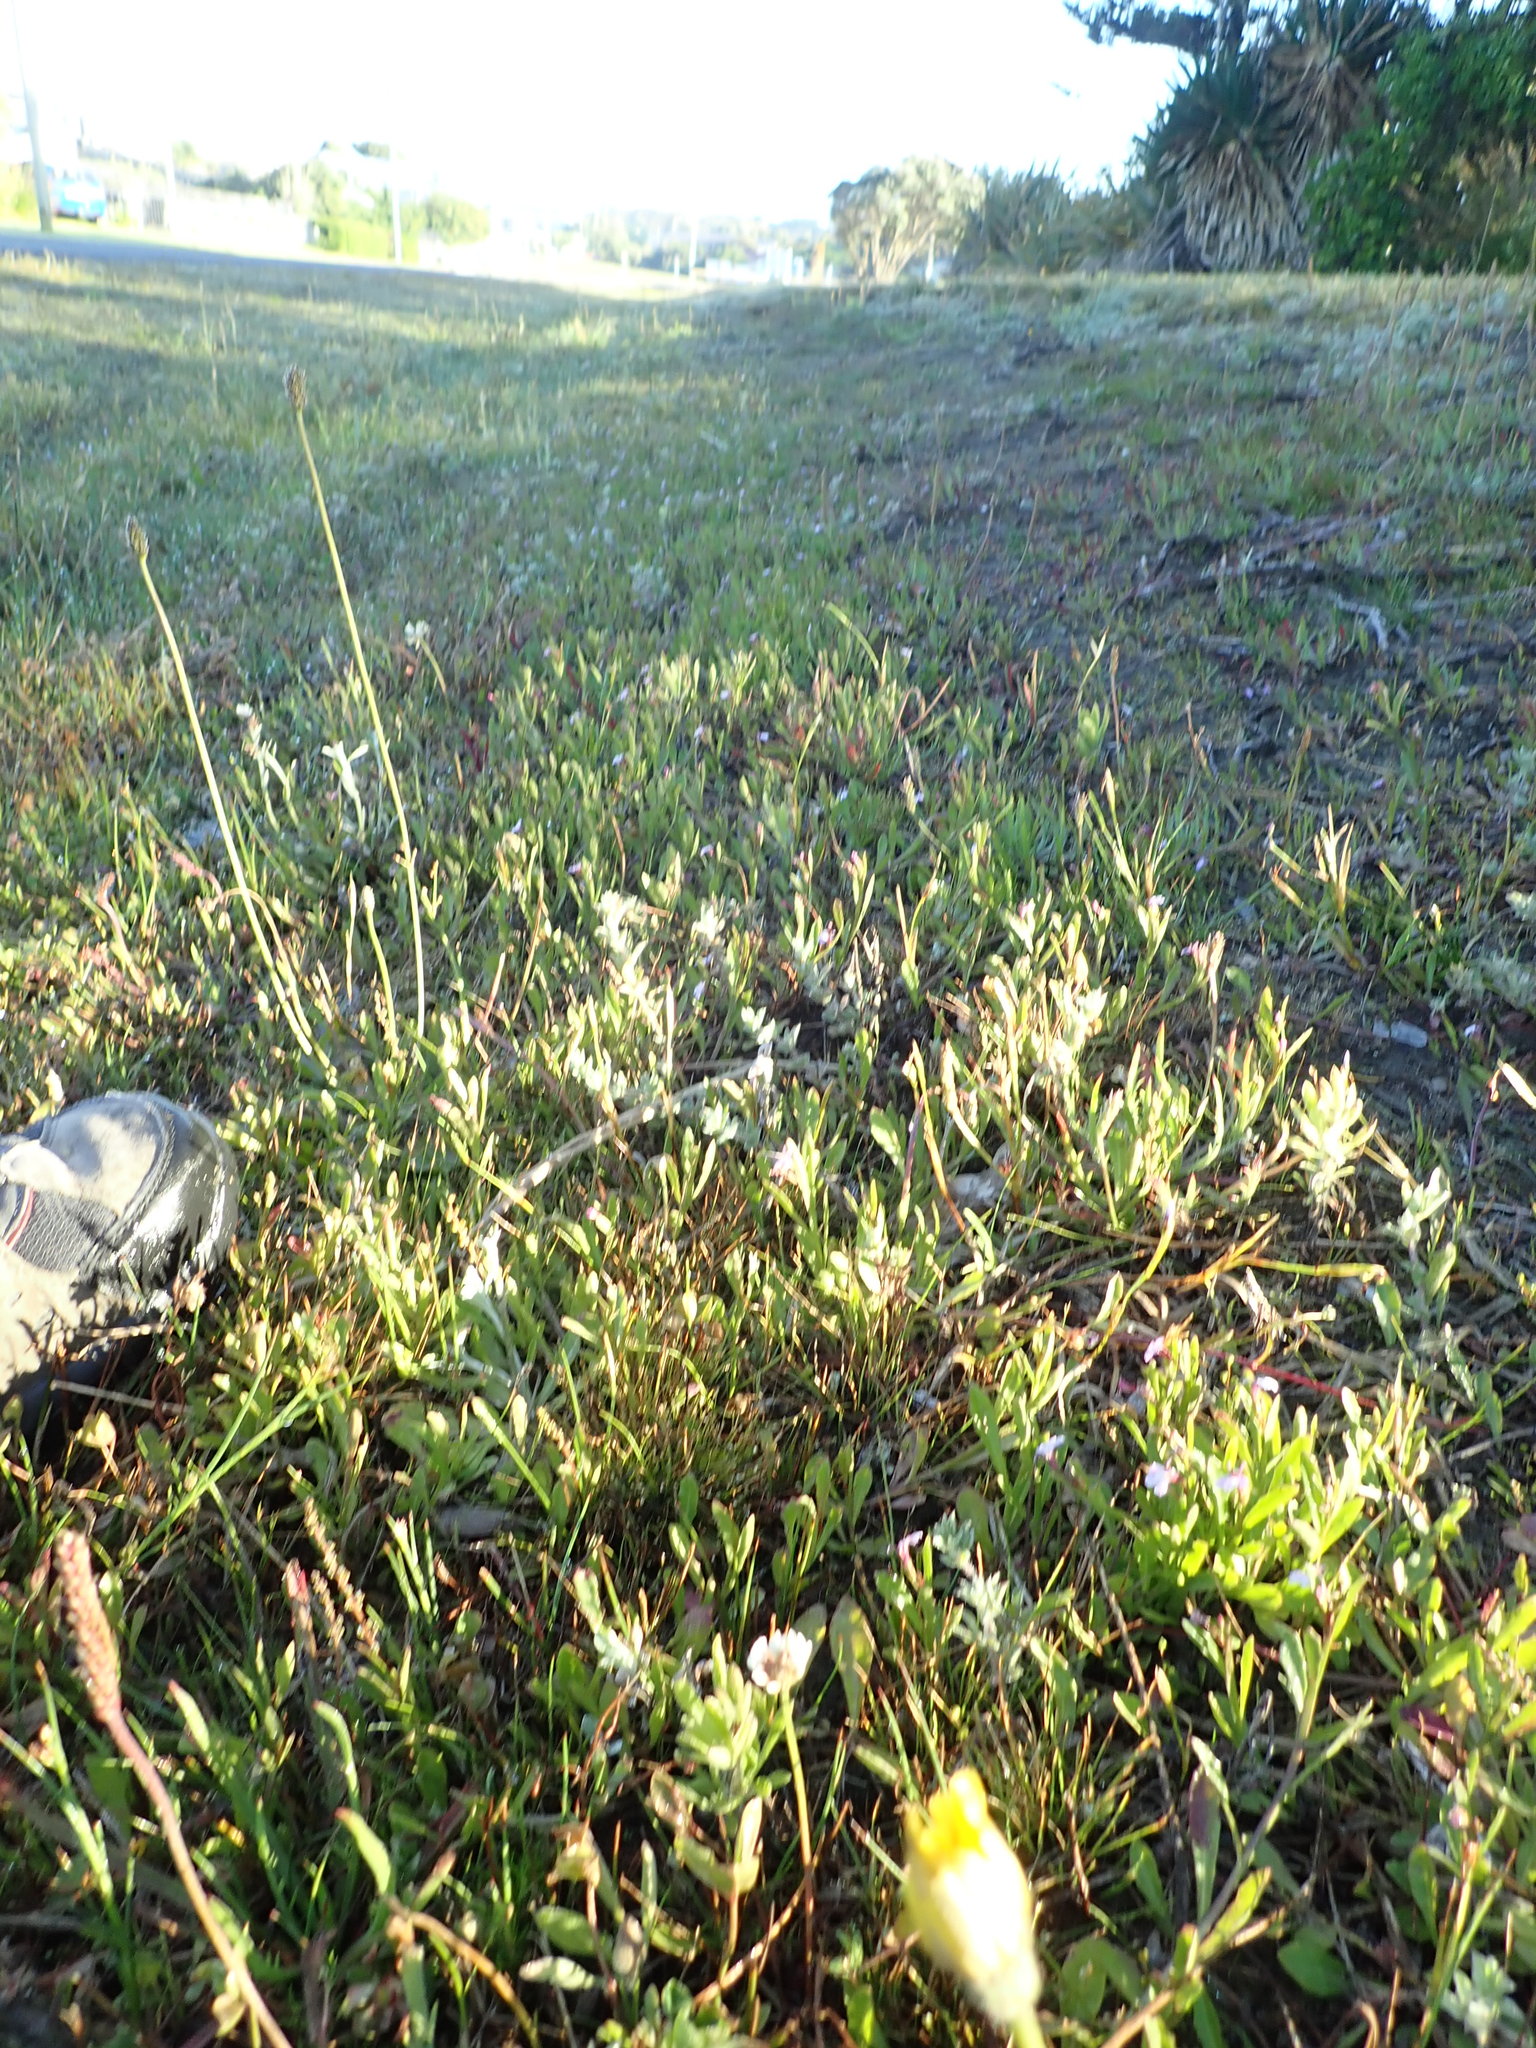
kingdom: Plantae
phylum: Tracheophyta
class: Magnoliopsida
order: Asterales
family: Campanulaceae
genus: Lobelia
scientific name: Lobelia anceps
